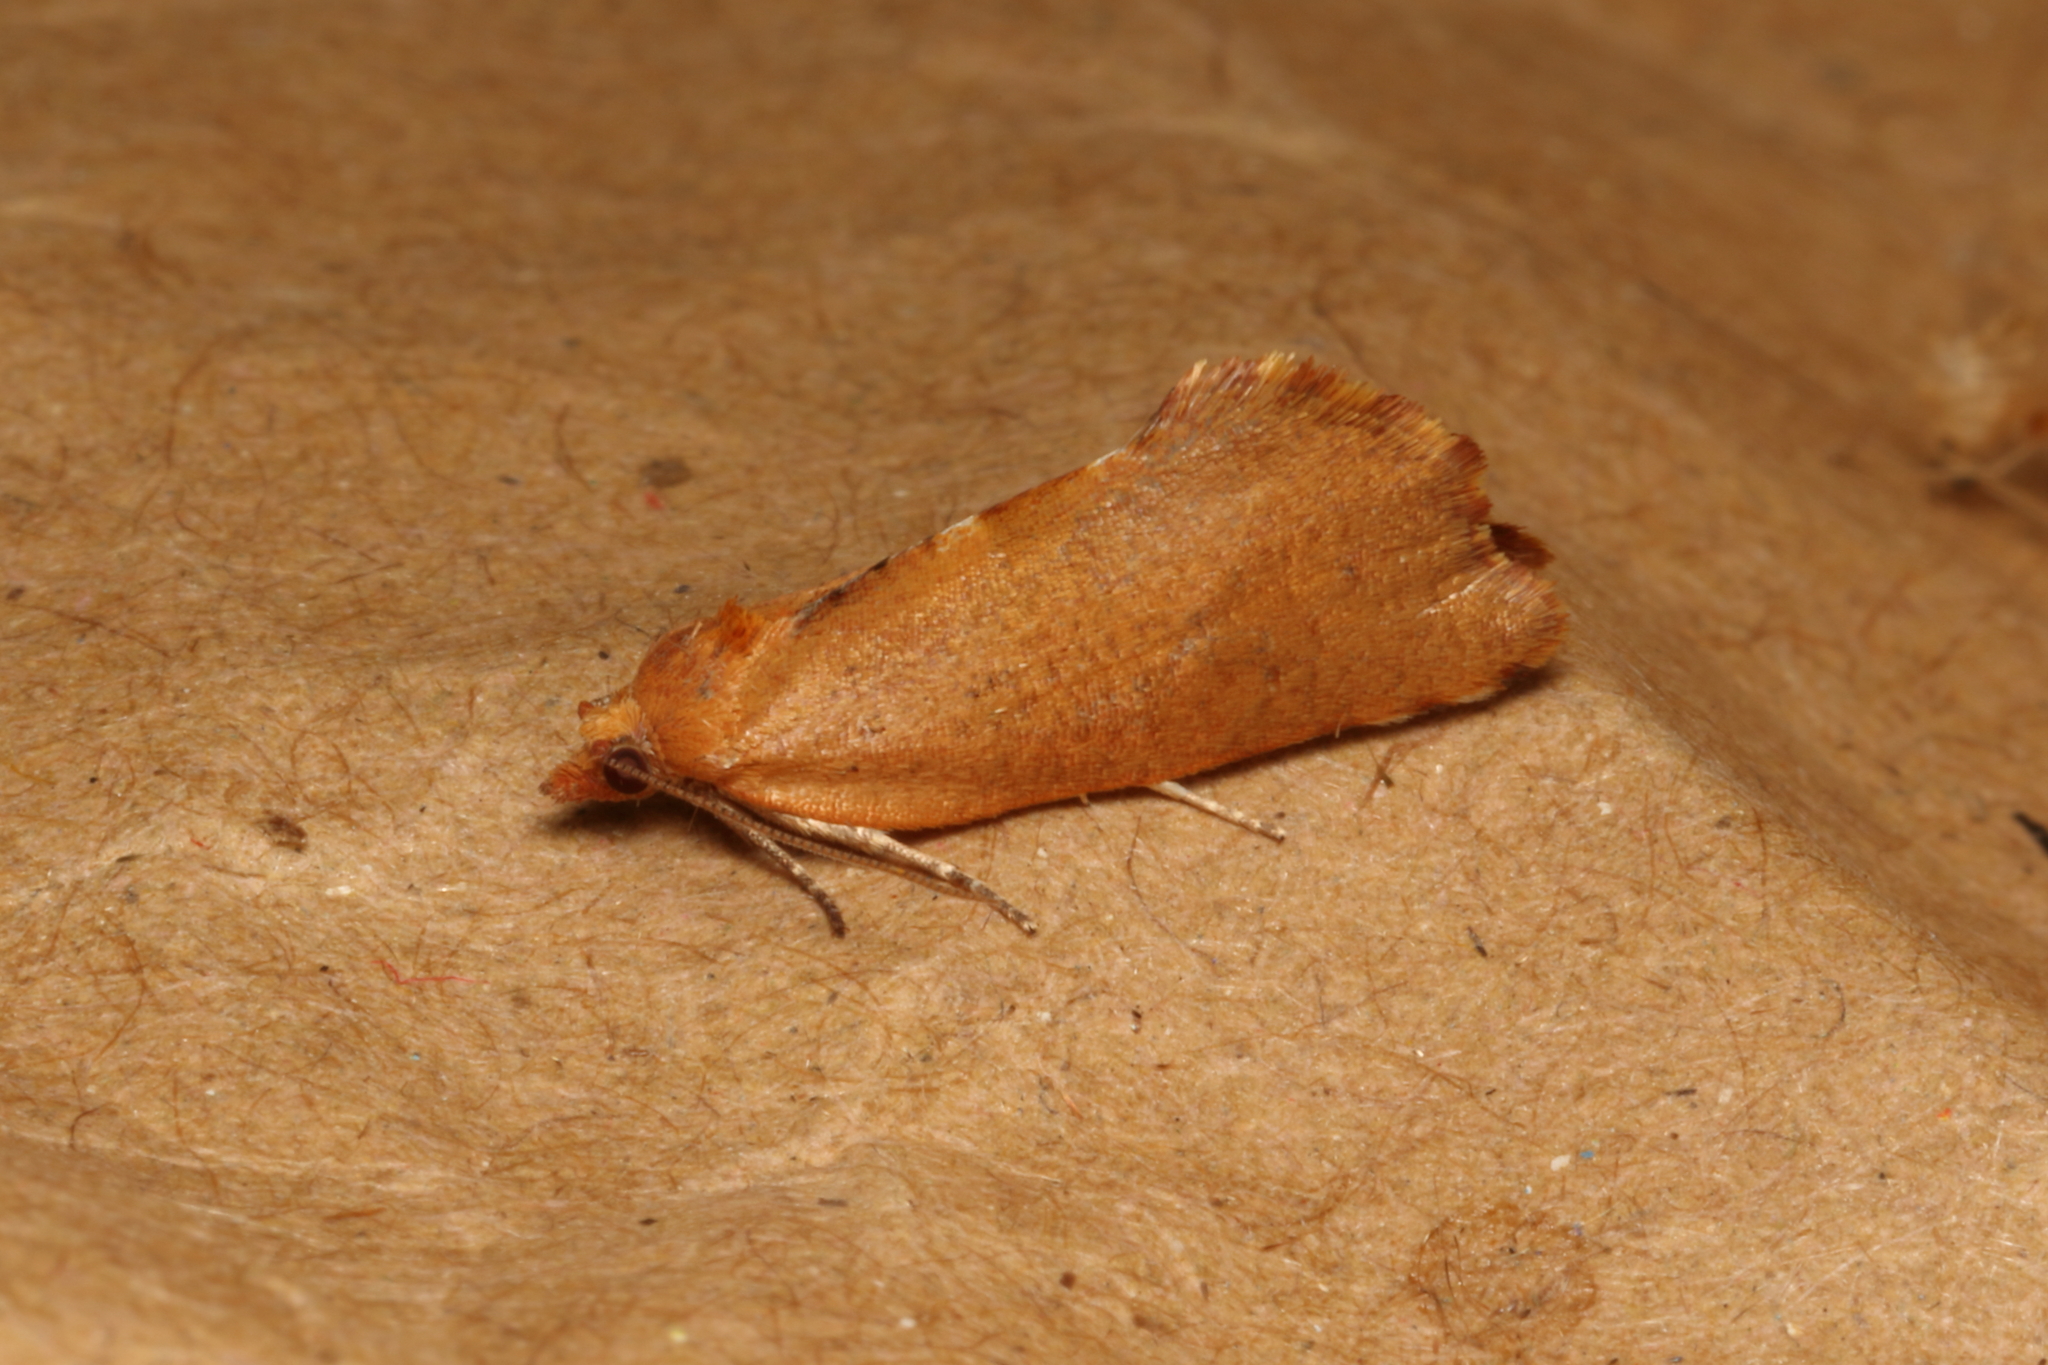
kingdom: Animalia
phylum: Arthropoda
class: Insecta
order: Lepidoptera
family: Tortricidae
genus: Pyrgotis
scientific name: Pyrgotis pyramidias
